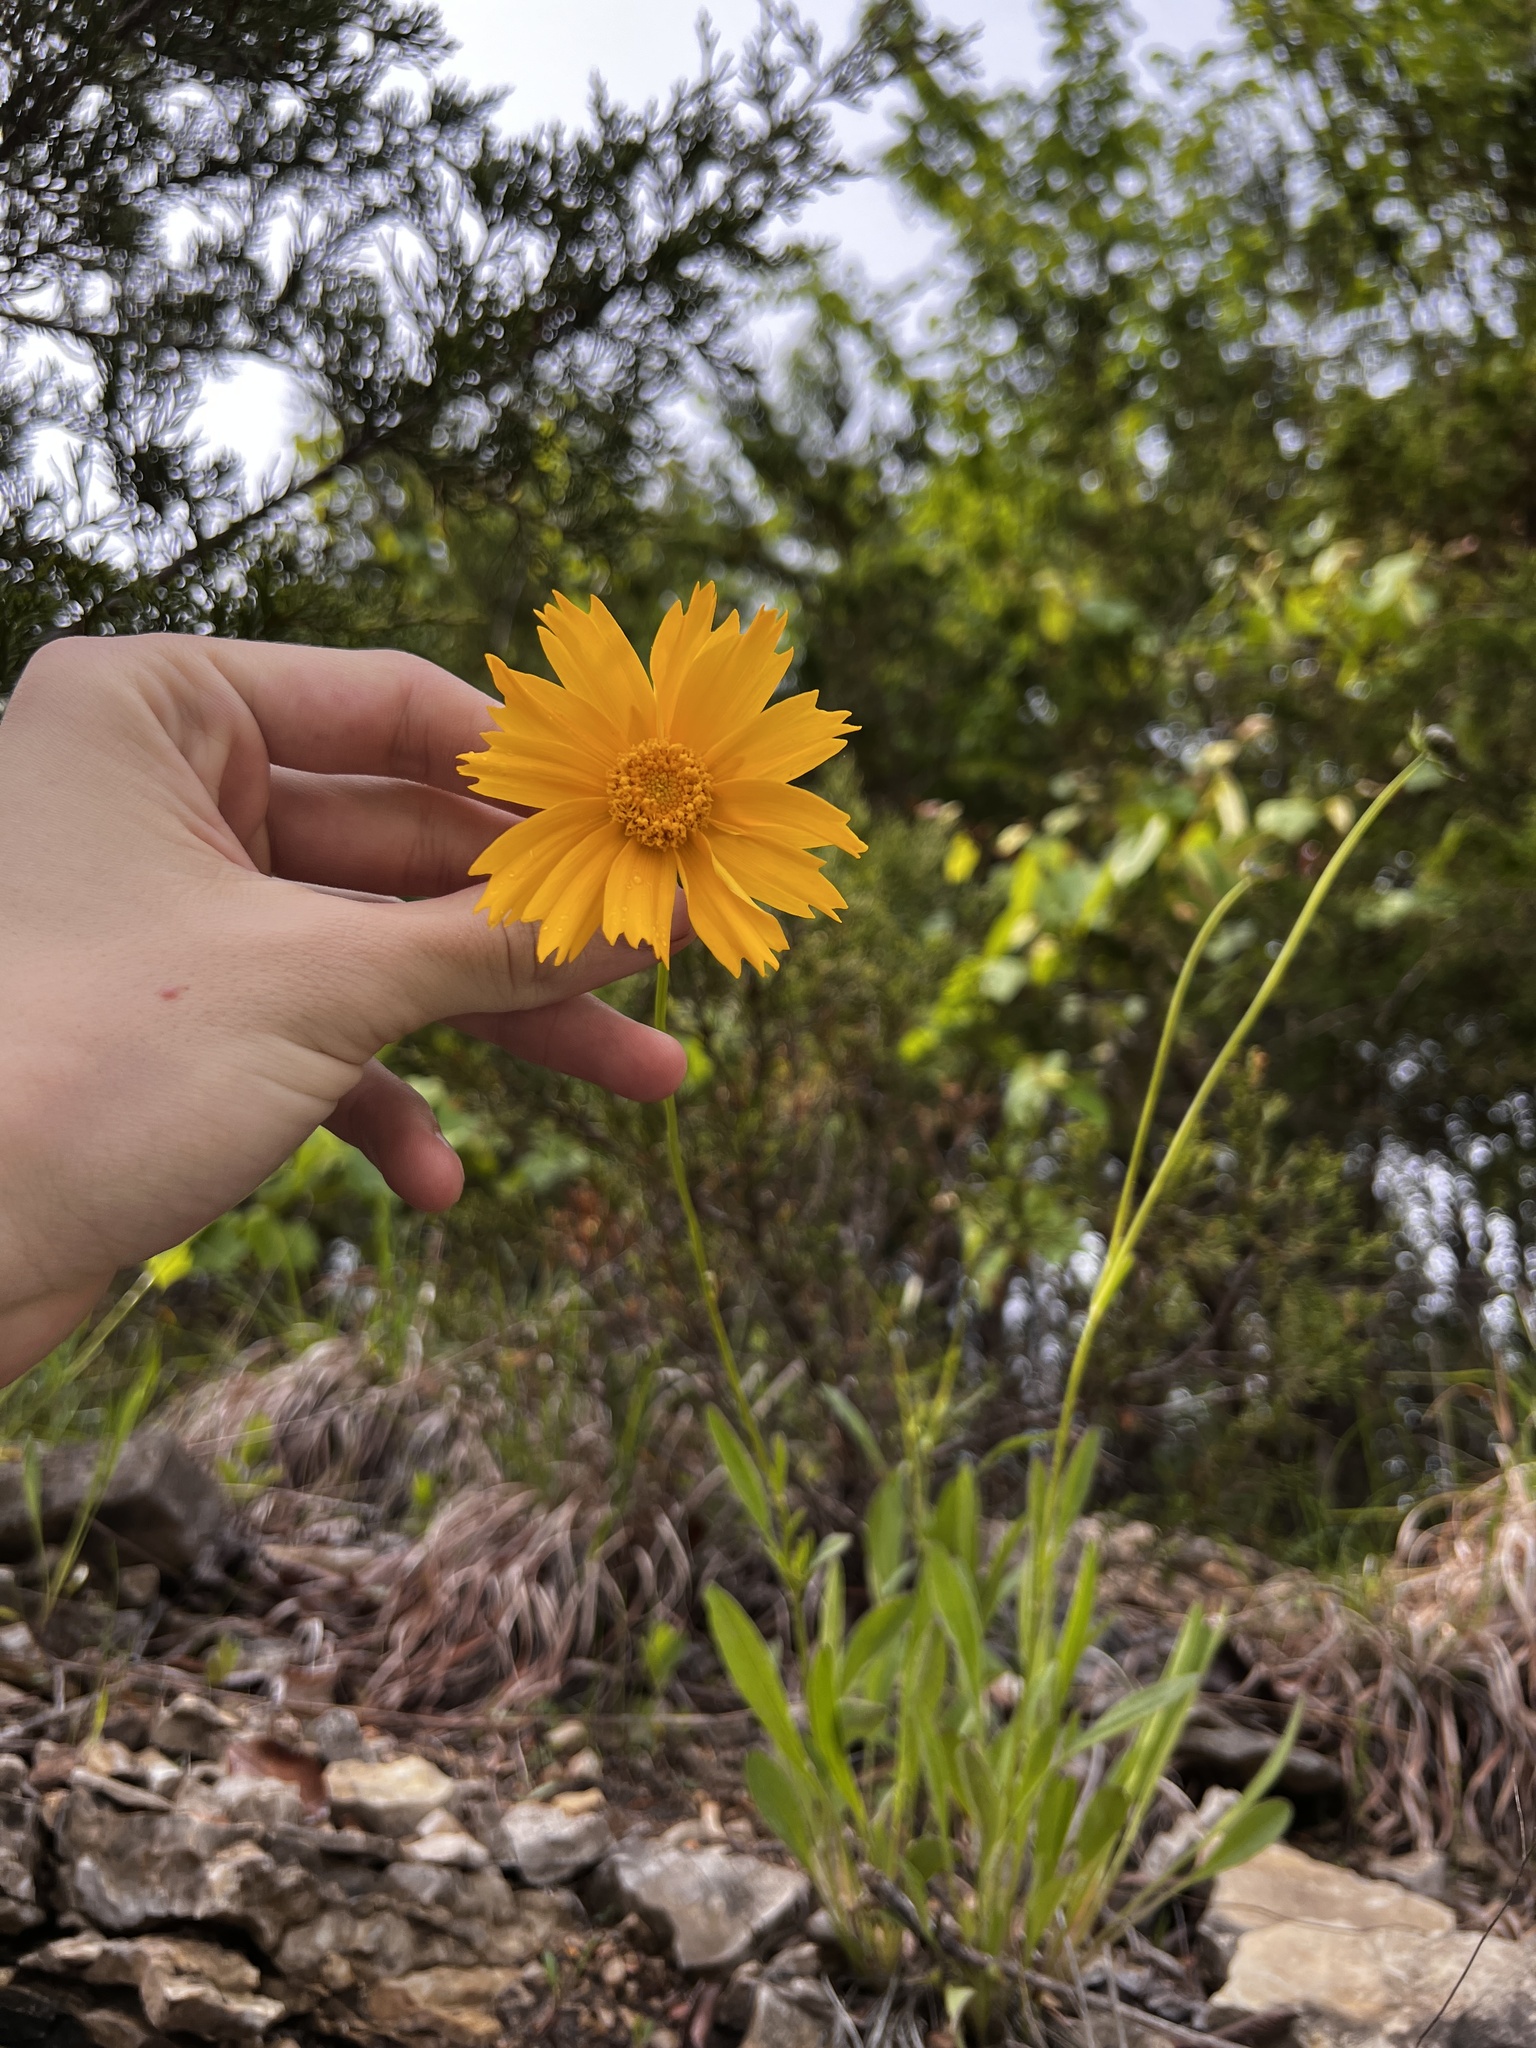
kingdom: Plantae
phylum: Tracheophyta
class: Magnoliopsida
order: Asterales
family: Asteraceae
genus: Coreopsis
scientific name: Coreopsis lanceolata
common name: Garden coreopsis
